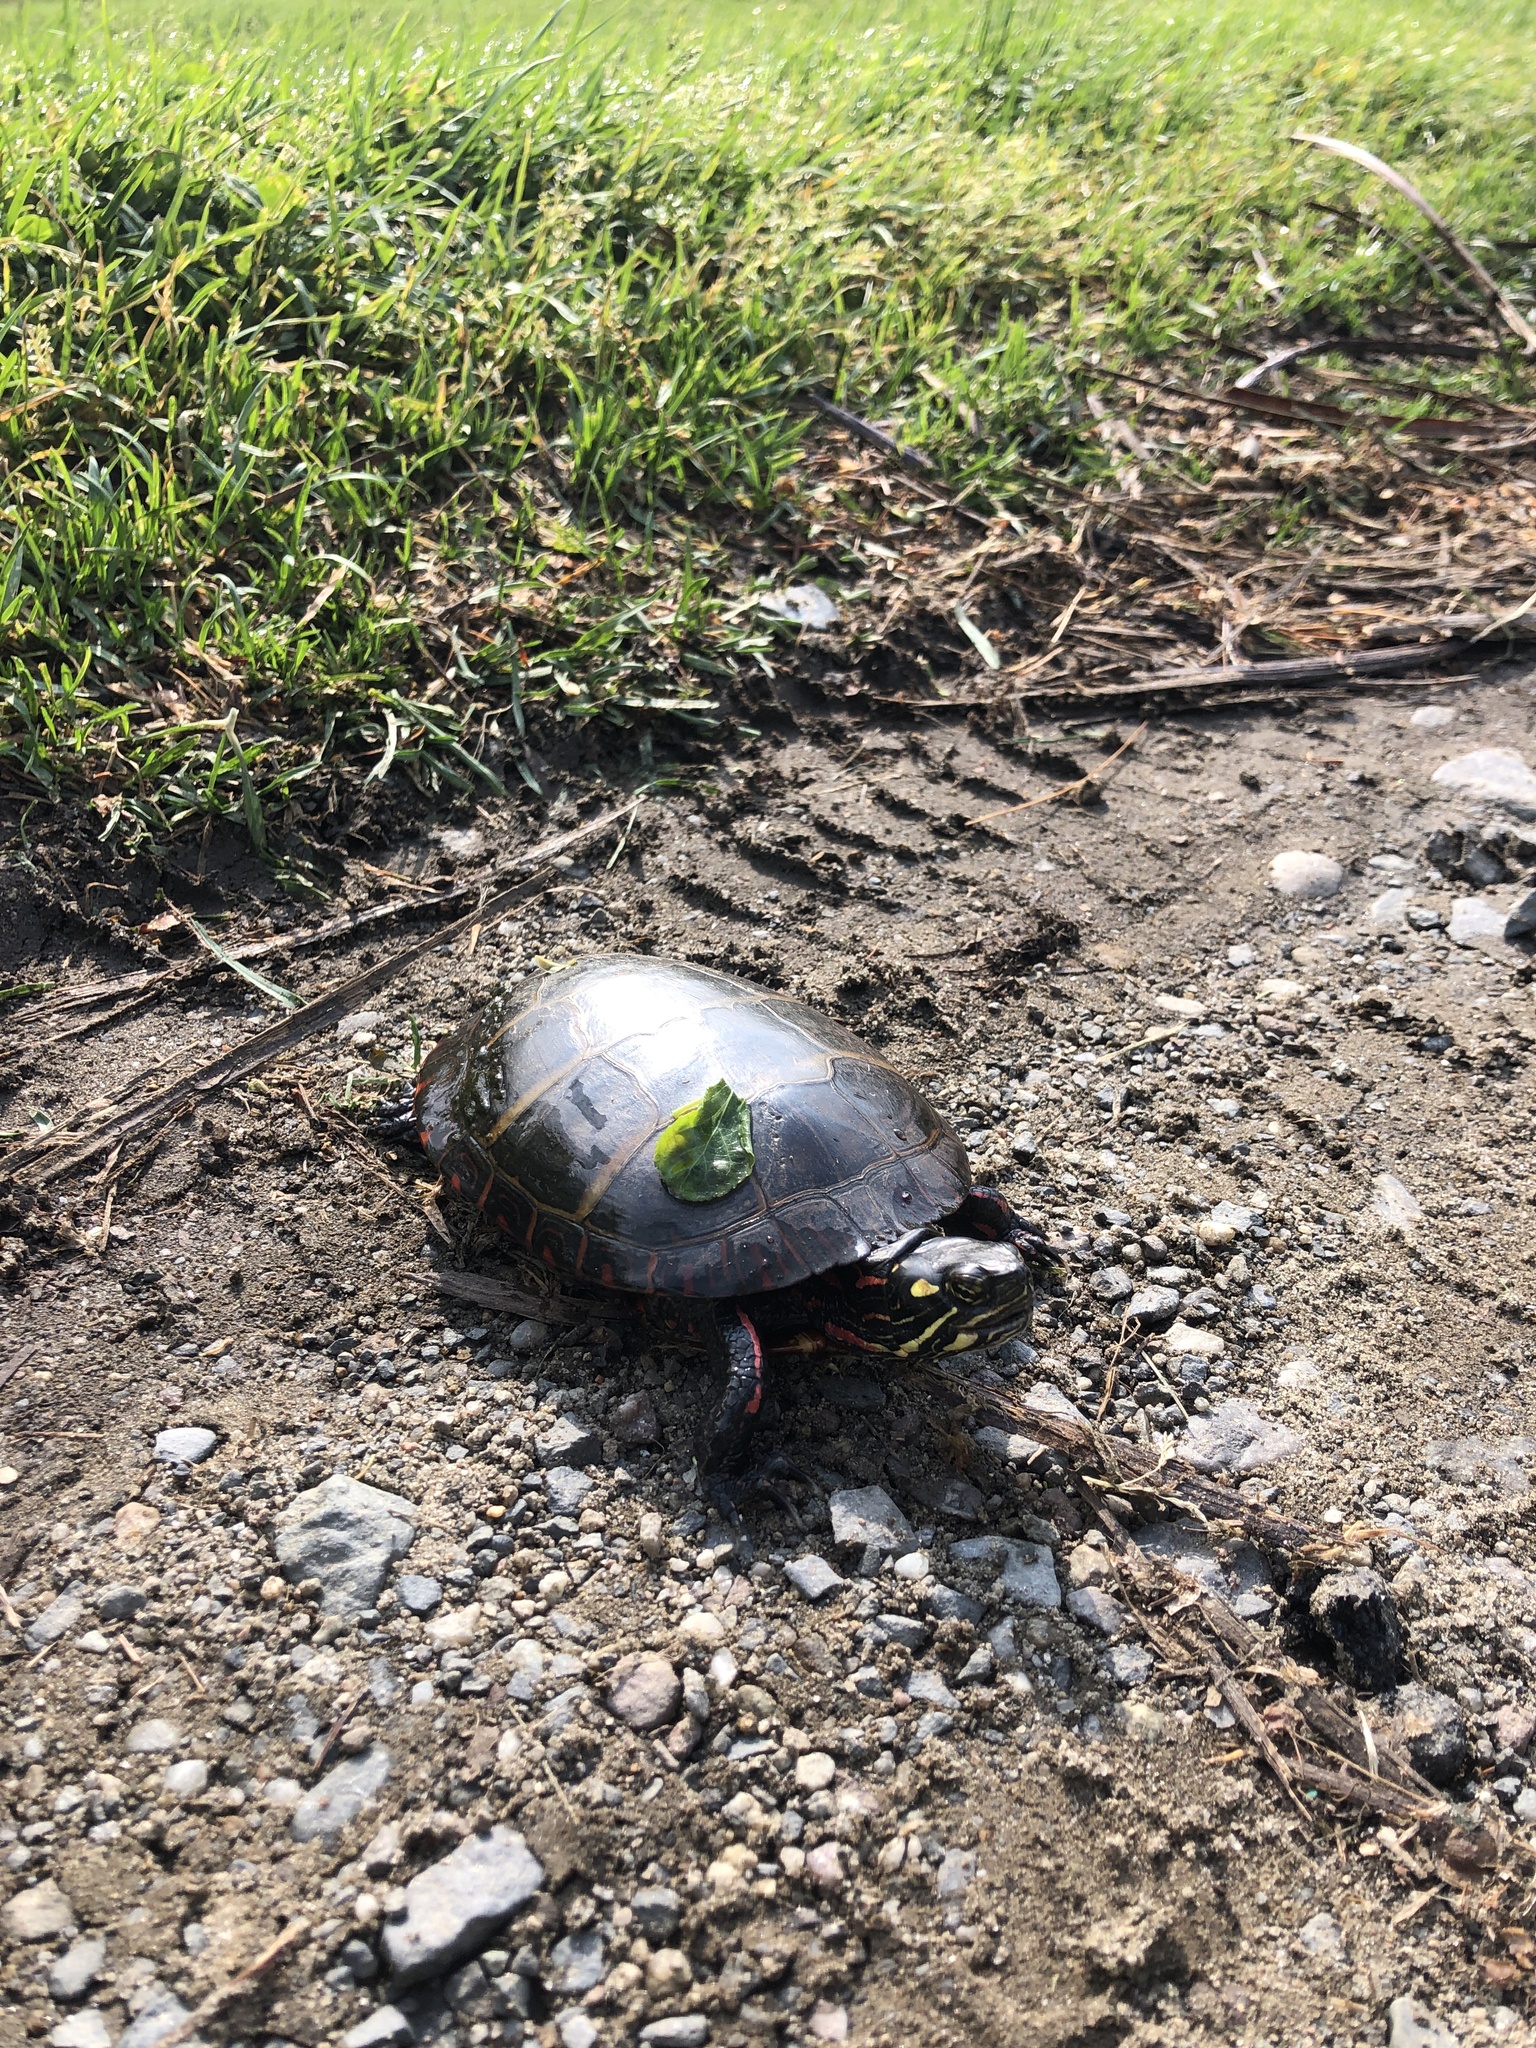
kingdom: Animalia
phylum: Chordata
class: Testudines
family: Emydidae
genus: Chrysemys
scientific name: Chrysemys picta
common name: Painted turtle
